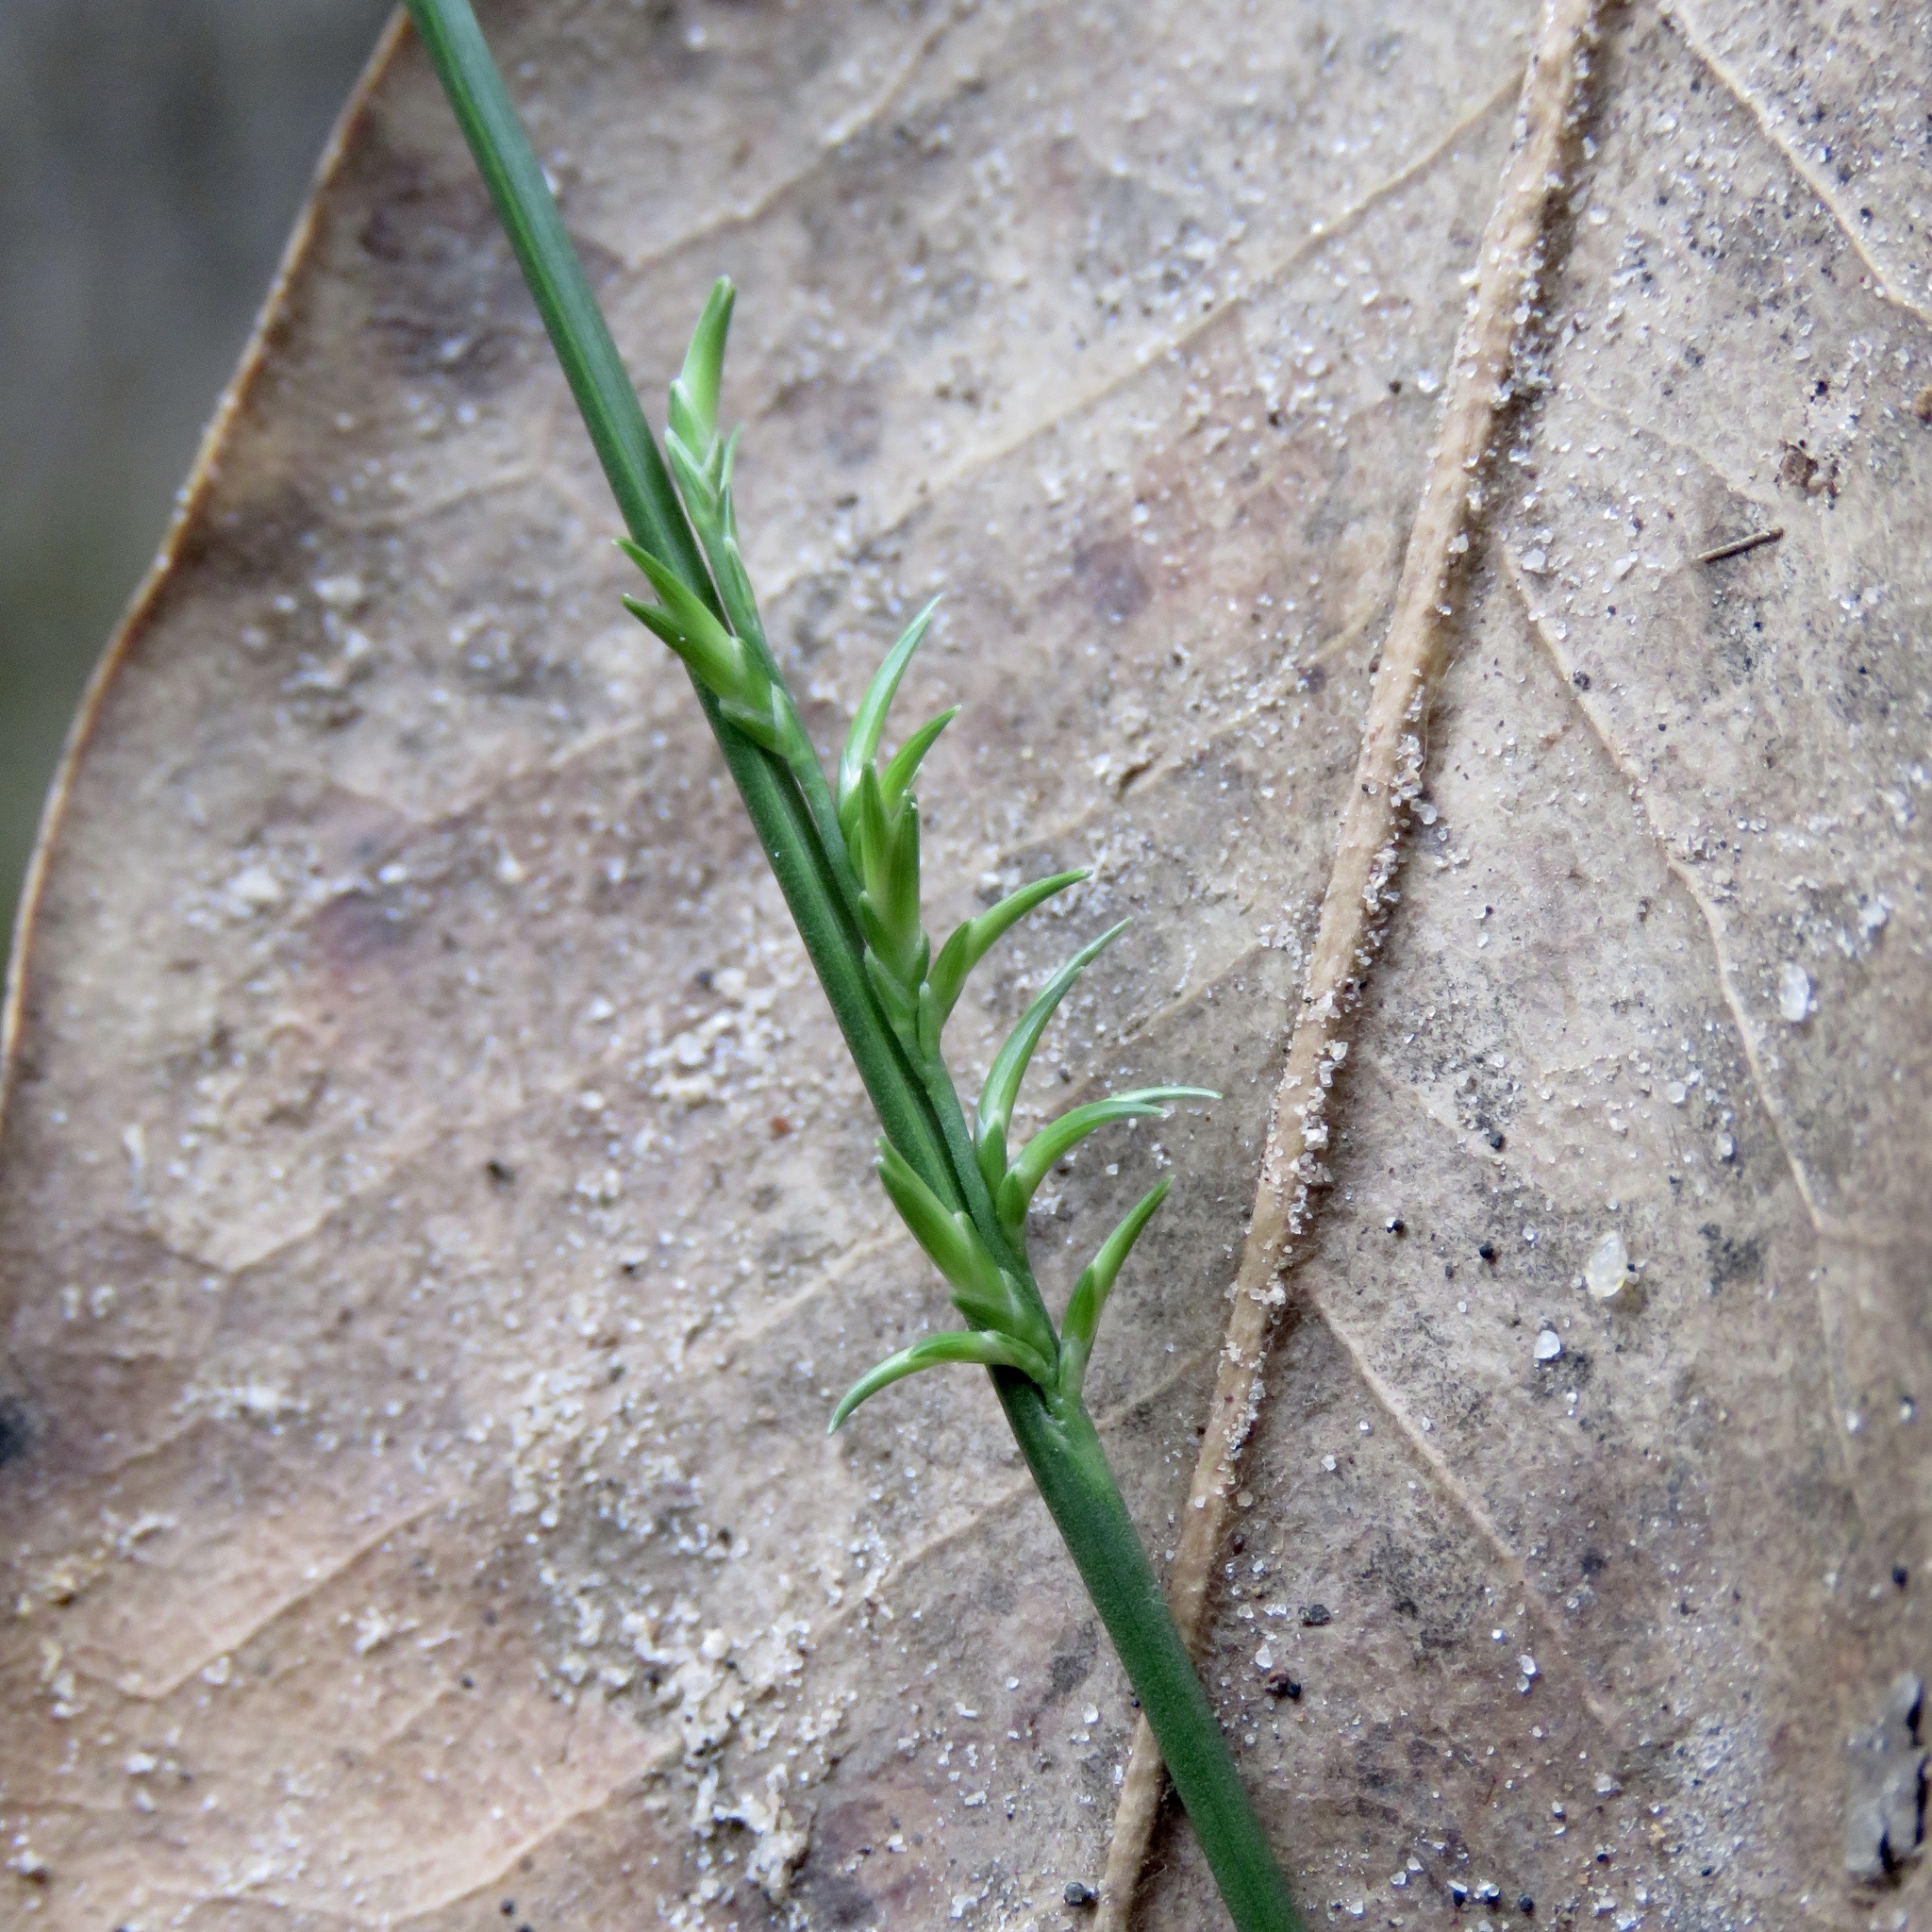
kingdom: Plantae
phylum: Tracheophyta
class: Liliopsida
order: Poales
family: Poaceae
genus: Chasmanthium
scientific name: Chasmanthium laxum
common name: Slender chasmanthium
